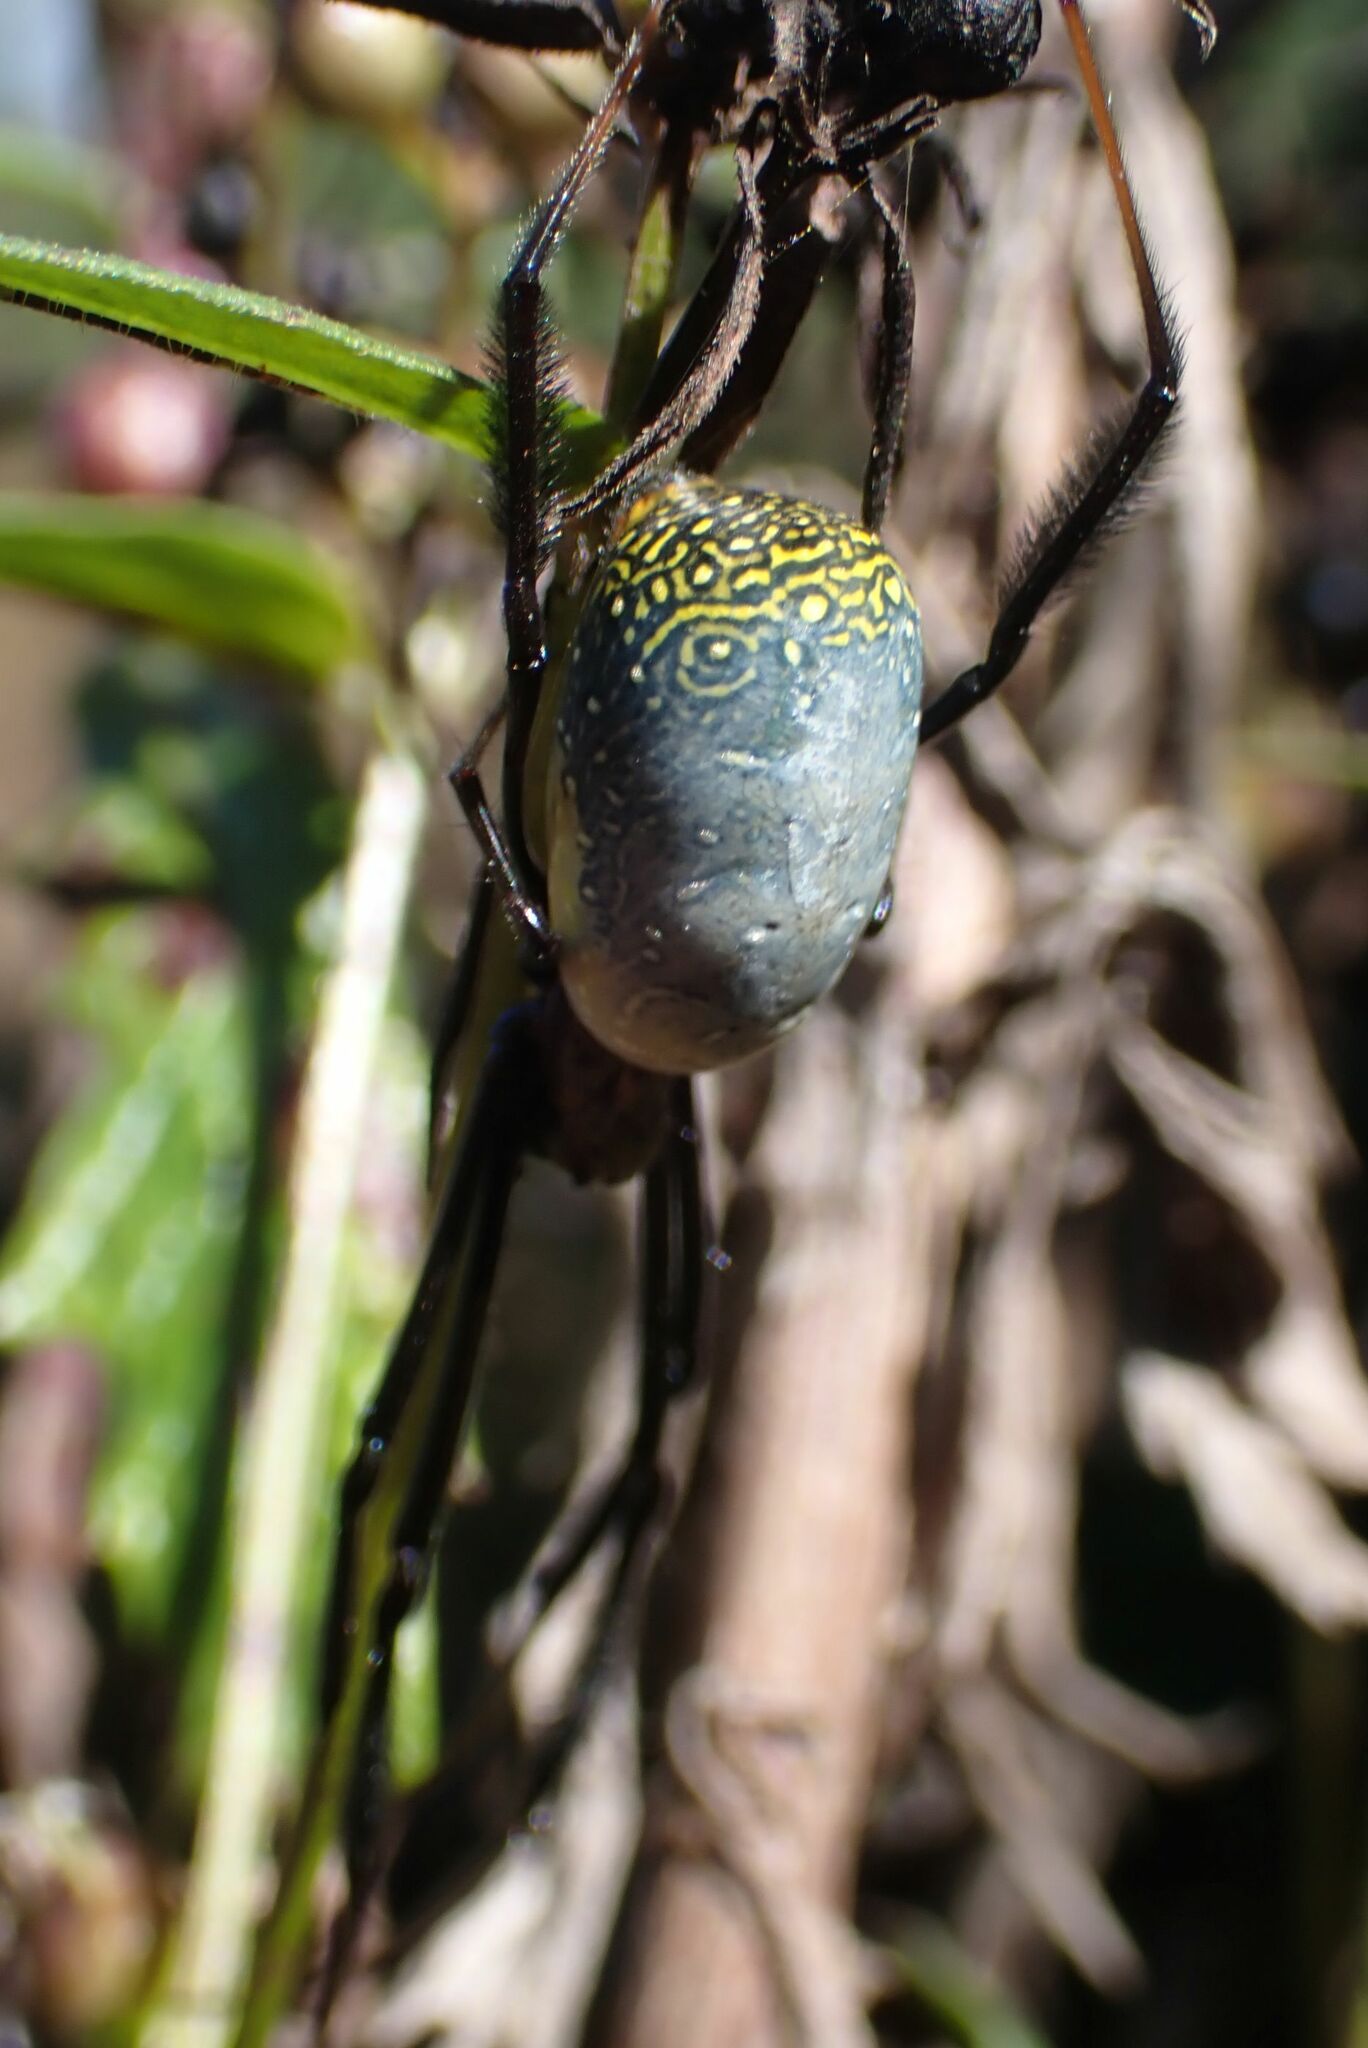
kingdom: Animalia
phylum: Arthropoda
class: Arachnida
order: Araneae
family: Araneidae
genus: Trichonephila
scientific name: Trichonephila fenestrata
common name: Hairy golden orb weaver
